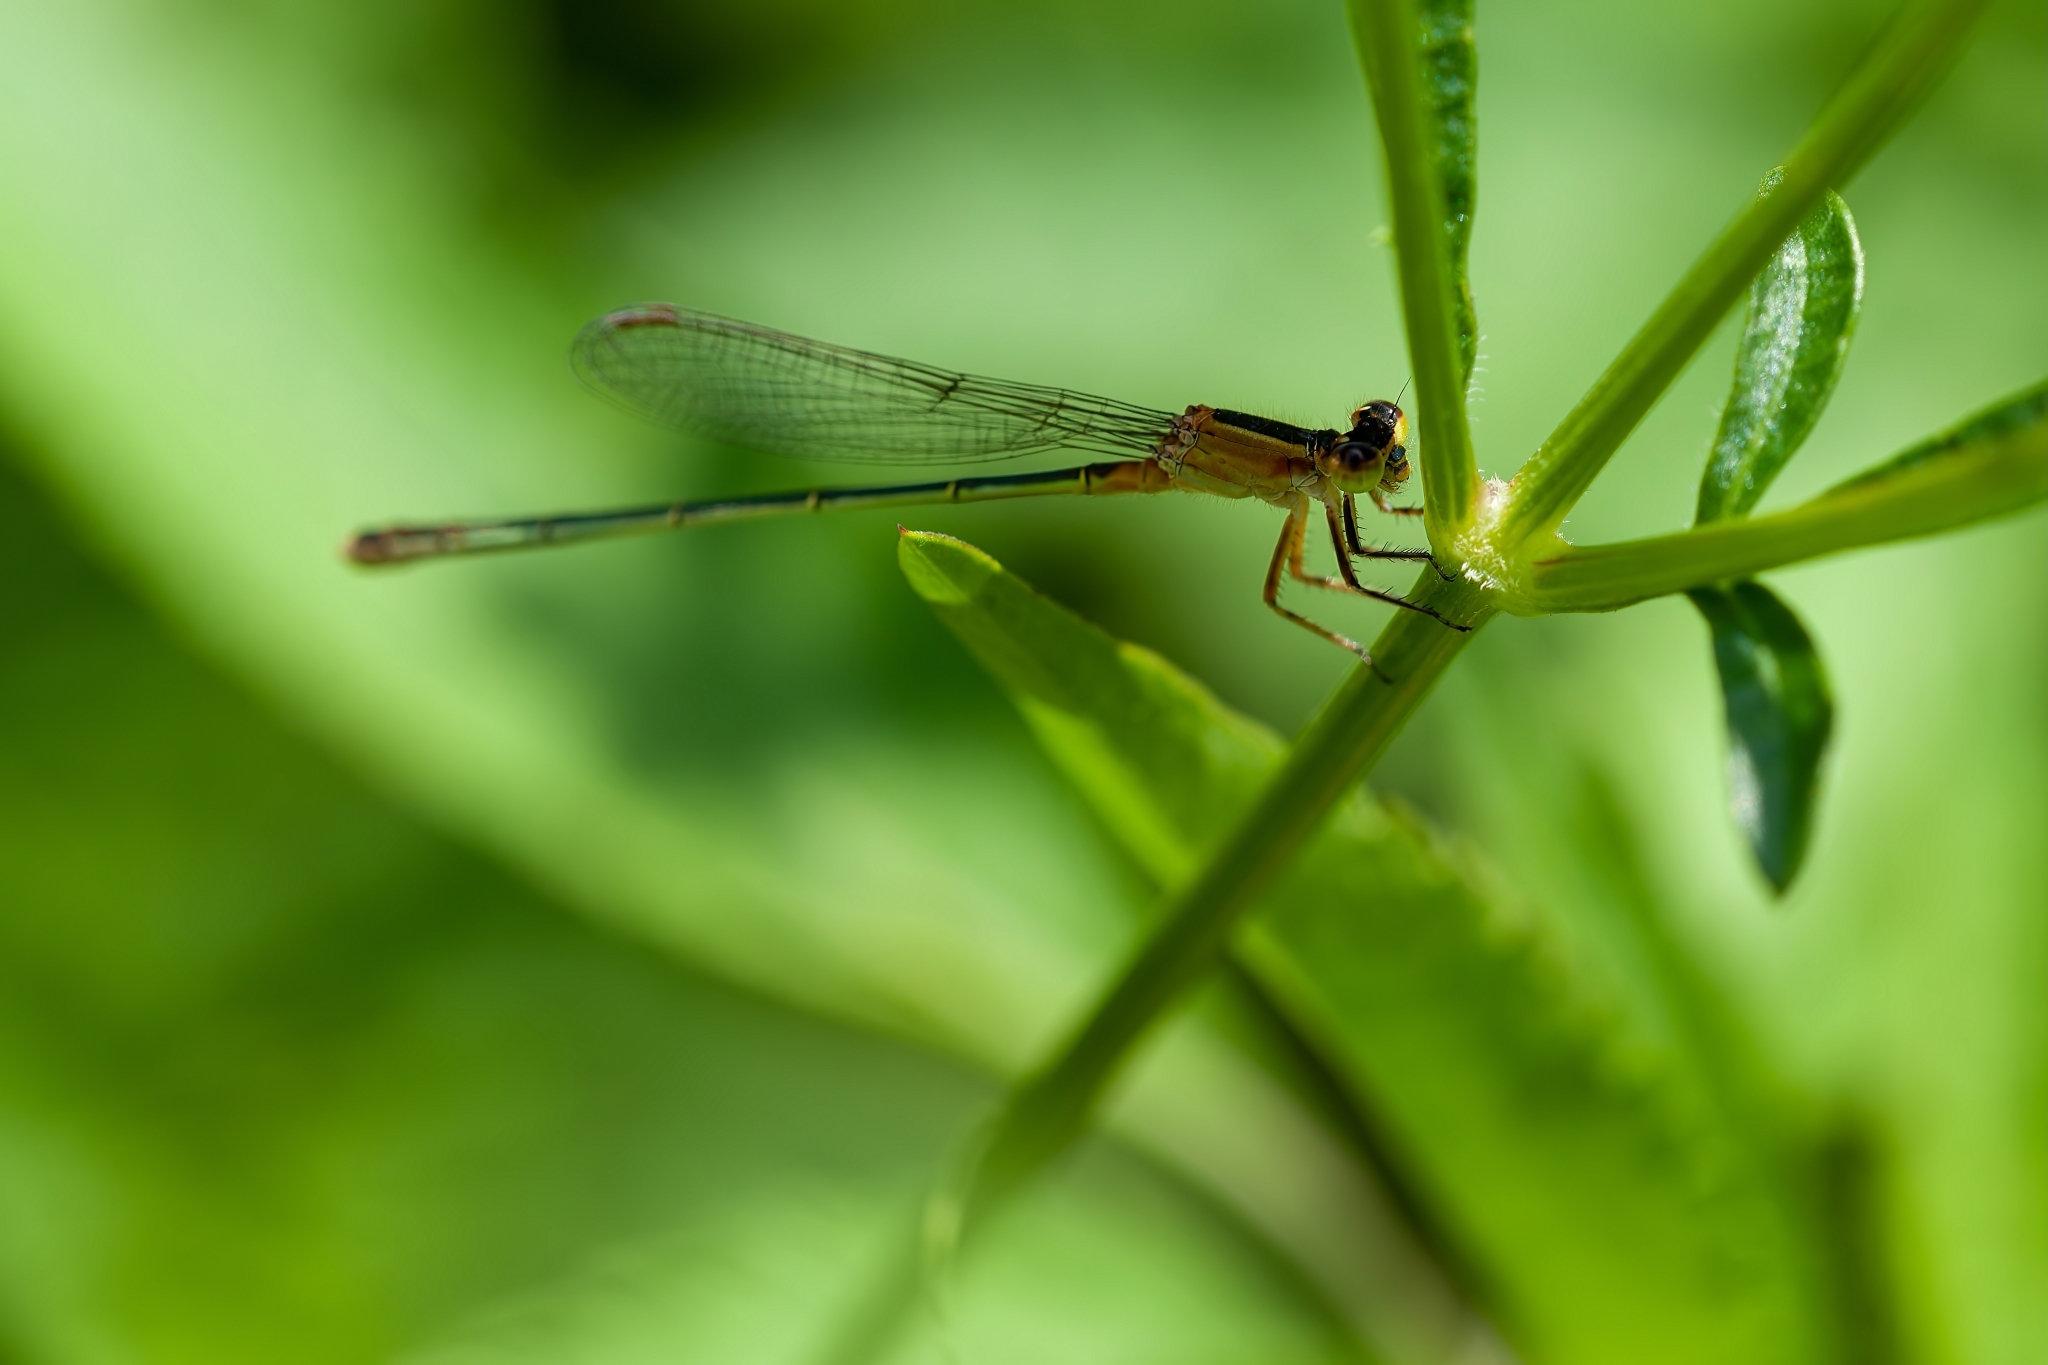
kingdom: Animalia
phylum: Arthropoda
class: Insecta
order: Odonata
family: Coenagrionidae
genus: Ischnura
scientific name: Ischnura ramburii
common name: Rambur's forktail
